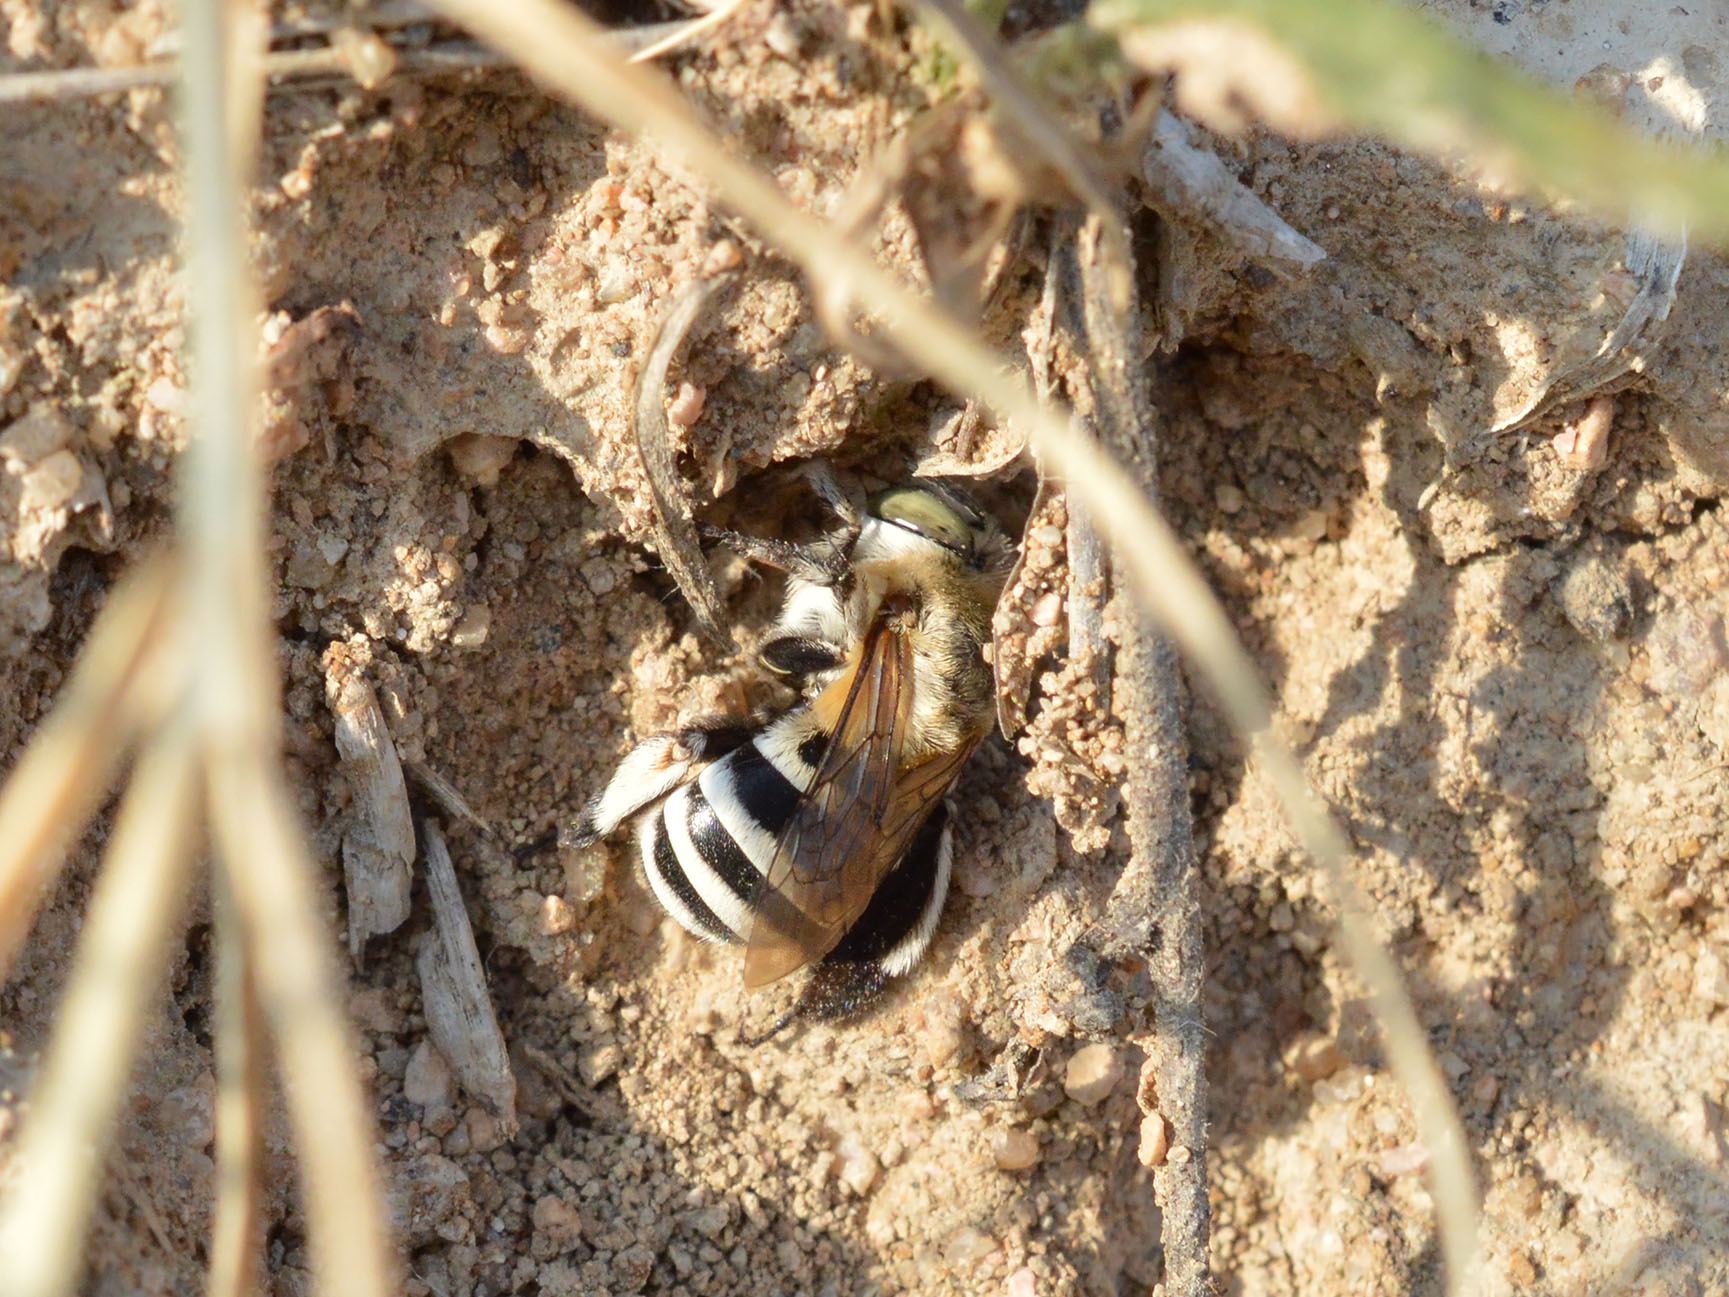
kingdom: Animalia
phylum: Arthropoda
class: Insecta
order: Hymenoptera
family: Apidae
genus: Amegilla
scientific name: Amegilla quadrifasciata
